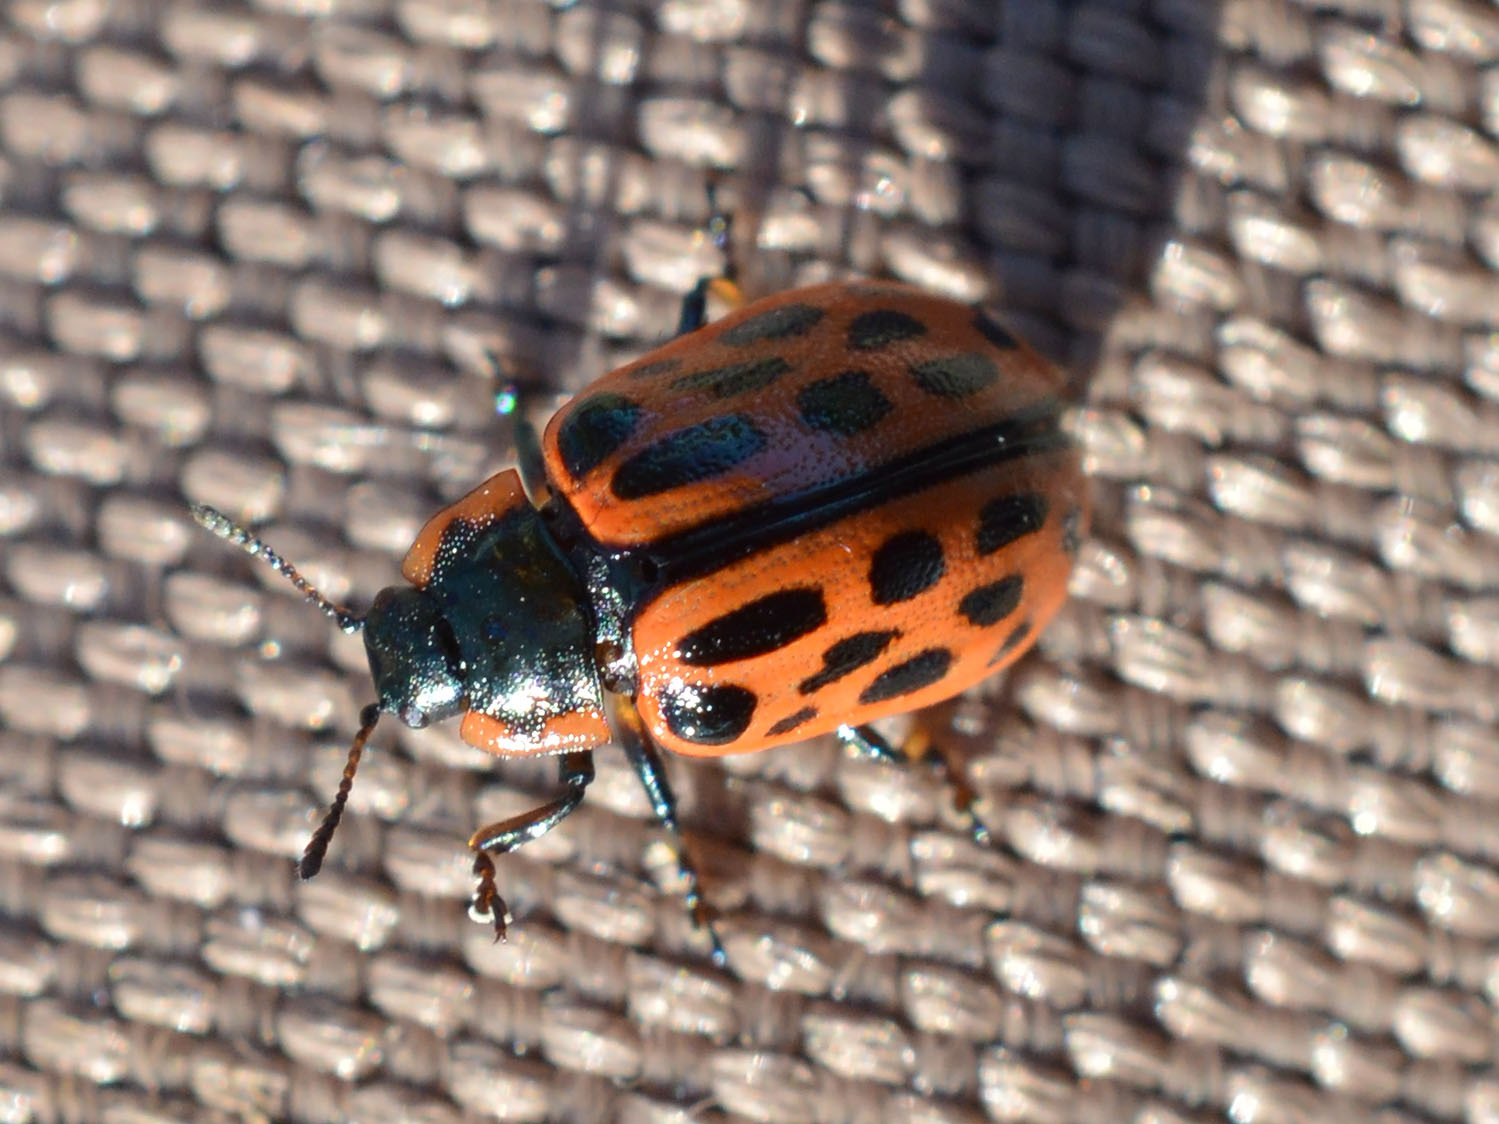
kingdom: Animalia
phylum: Arthropoda
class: Insecta
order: Coleoptera
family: Chrysomelidae
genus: Chrysomela
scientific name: Chrysomela vigintipunctata
